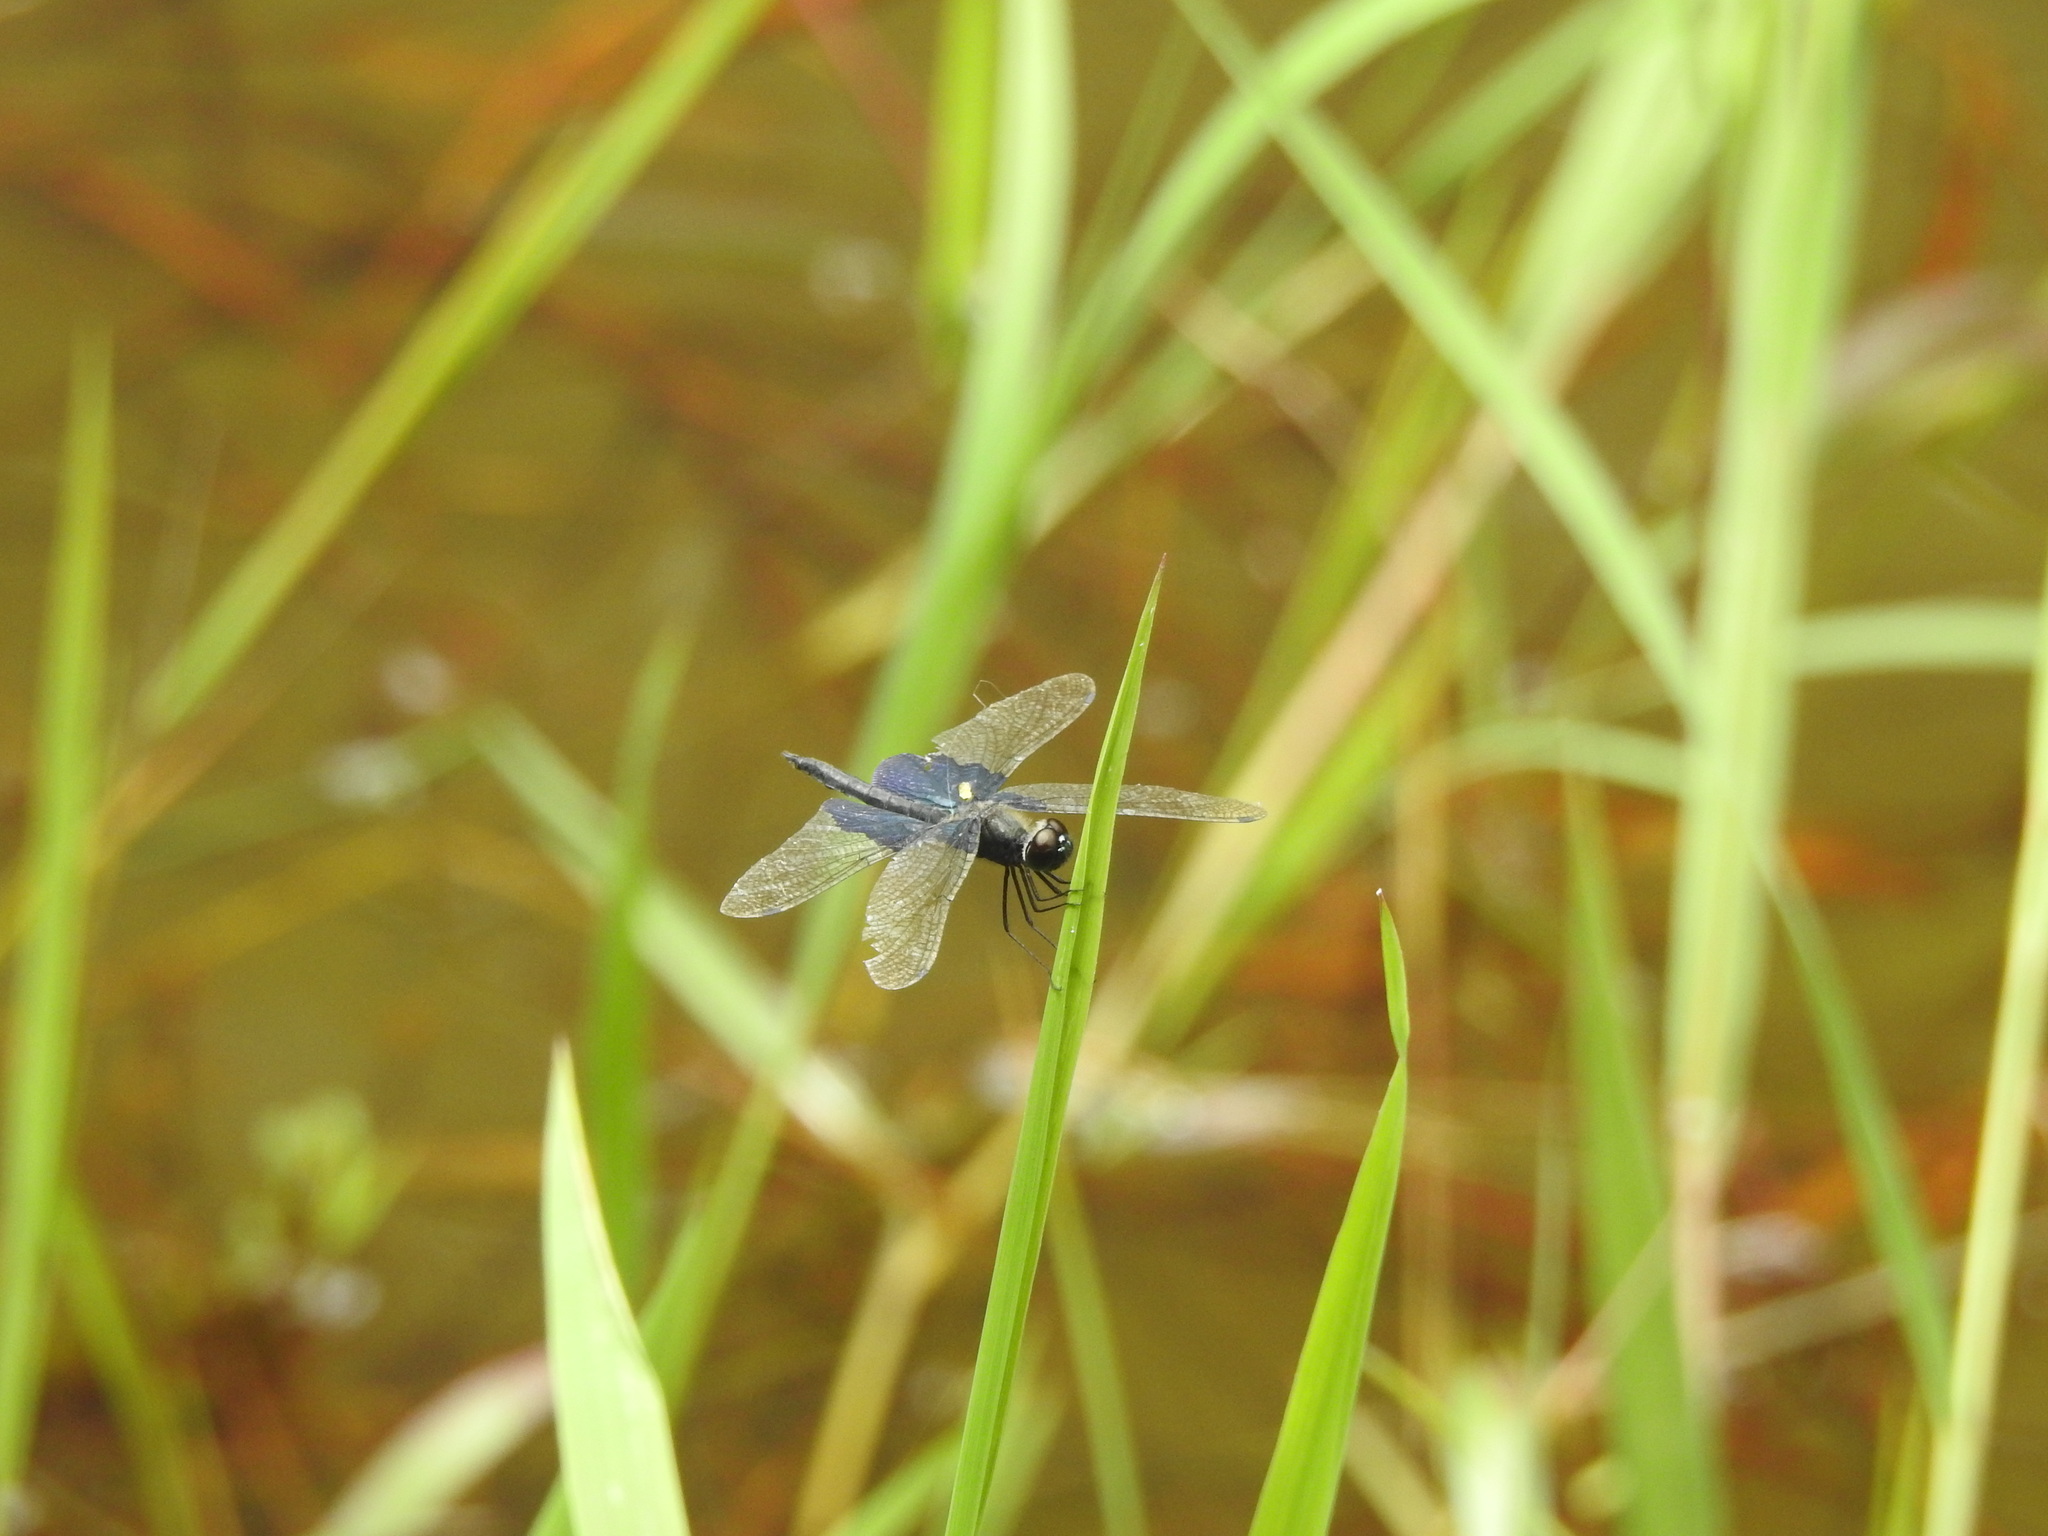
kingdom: Animalia
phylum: Arthropoda
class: Insecta
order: Odonata
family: Libellulidae
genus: Rhyothemis
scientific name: Rhyothemis triangularis
